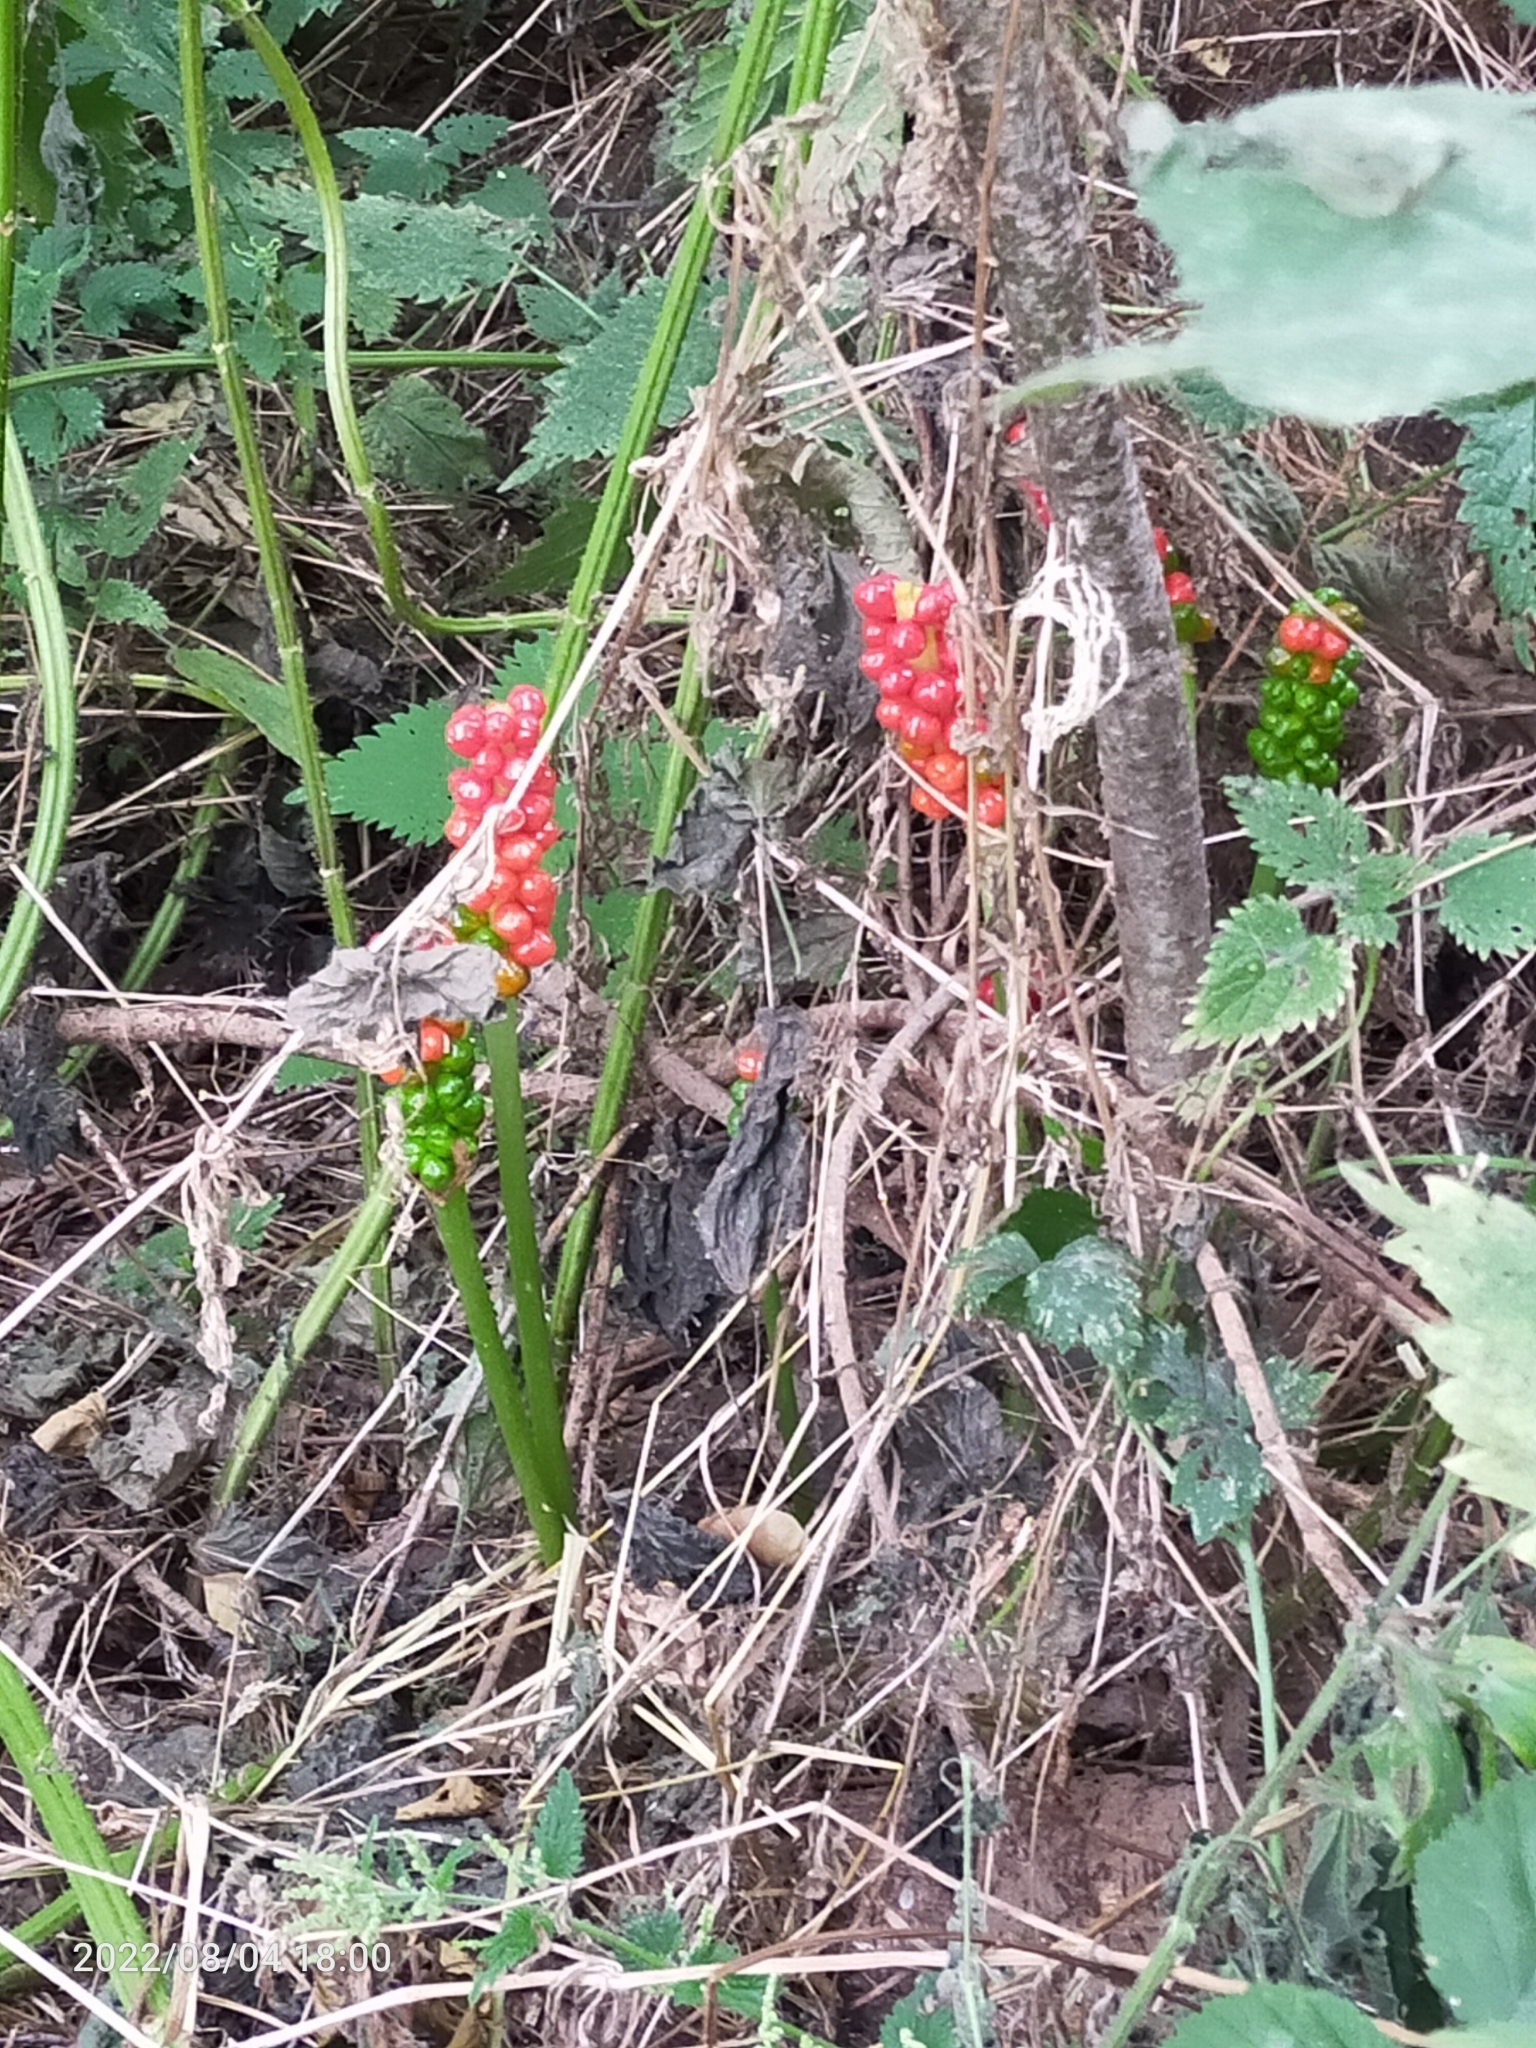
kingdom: Plantae
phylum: Tracheophyta
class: Liliopsida
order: Alismatales
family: Araceae
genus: Arum
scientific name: Arum maculatum
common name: Lords-and-ladies
